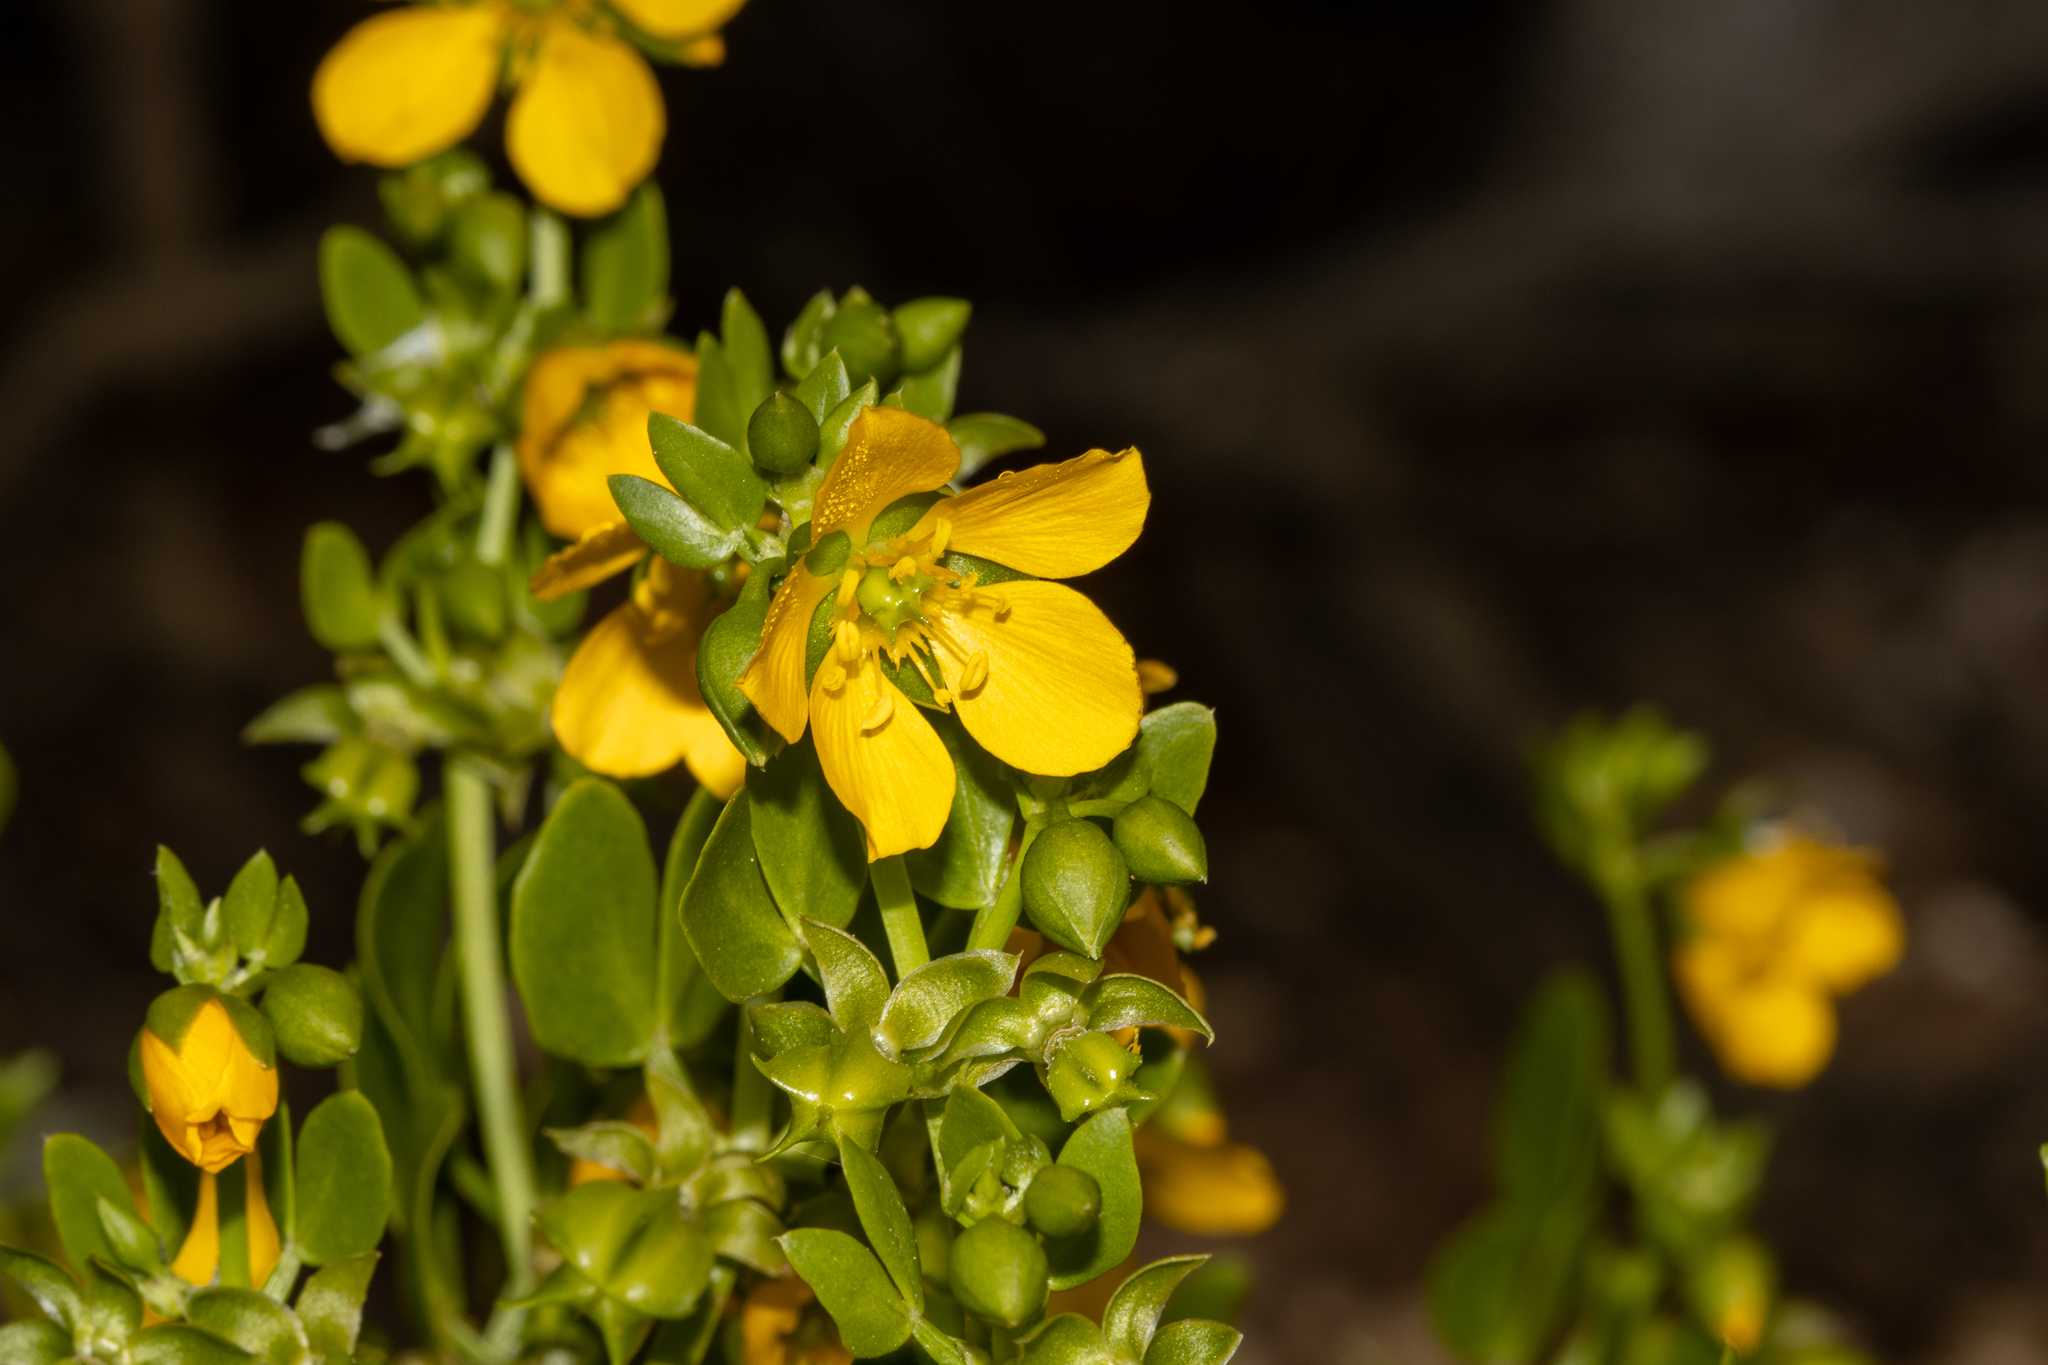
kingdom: Plantae
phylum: Tracheophyta
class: Magnoliopsida
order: Zygophyllales
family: Zygophyllaceae
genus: Roepera
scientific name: Roepera apiculata
